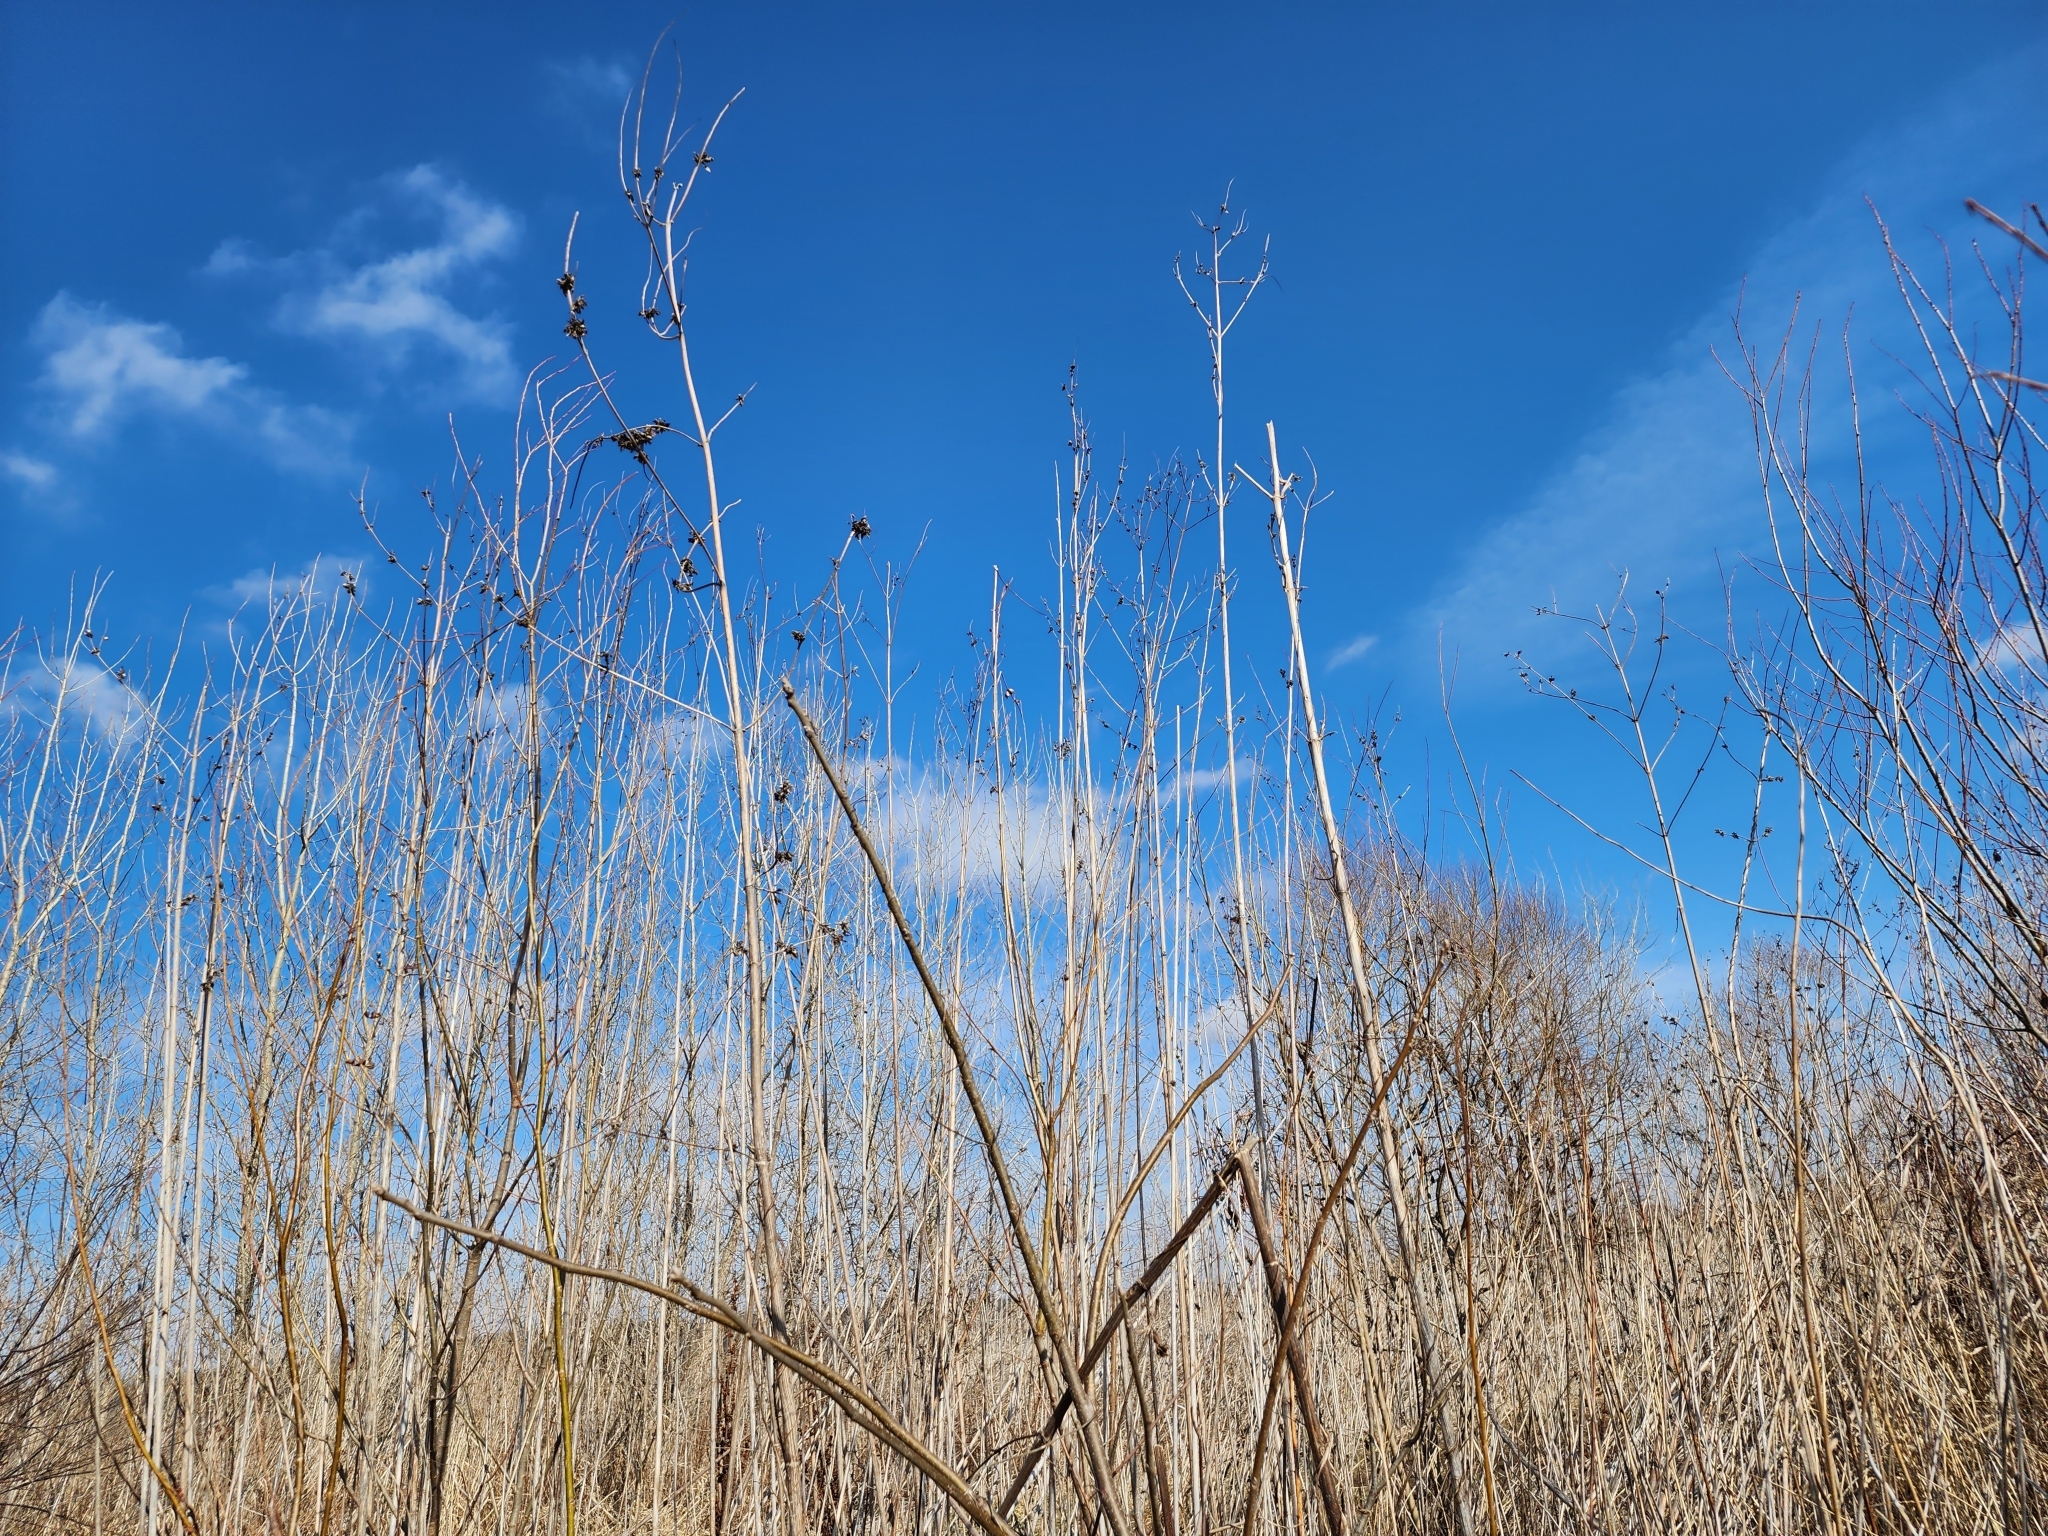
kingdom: Plantae
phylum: Tracheophyta
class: Magnoliopsida
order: Asterales
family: Asteraceae
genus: Ambrosia
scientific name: Ambrosia trifida
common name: Giant ragweed
